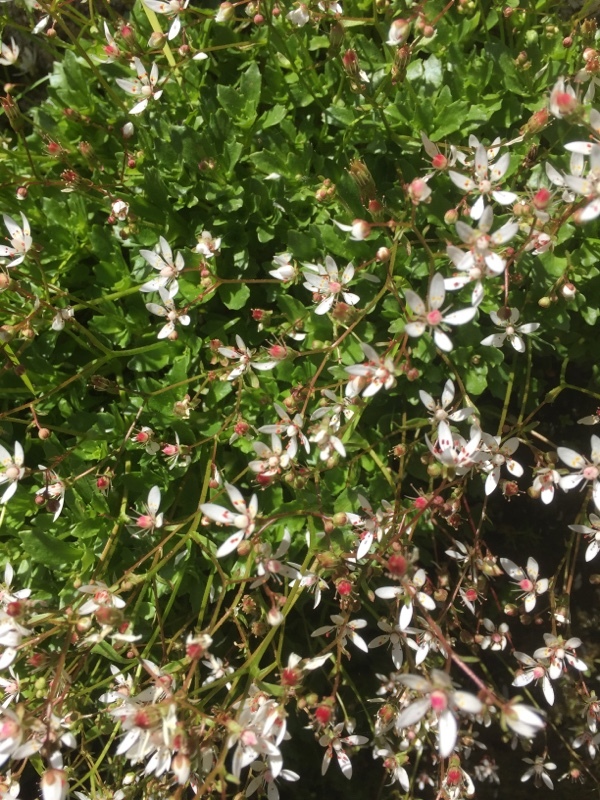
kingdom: Plantae
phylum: Tracheophyta
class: Magnoliopsida
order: Saxifragales
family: Saxifragaceae
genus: Micranthes
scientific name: Micranthes stellaris
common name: Starry saxifrage
